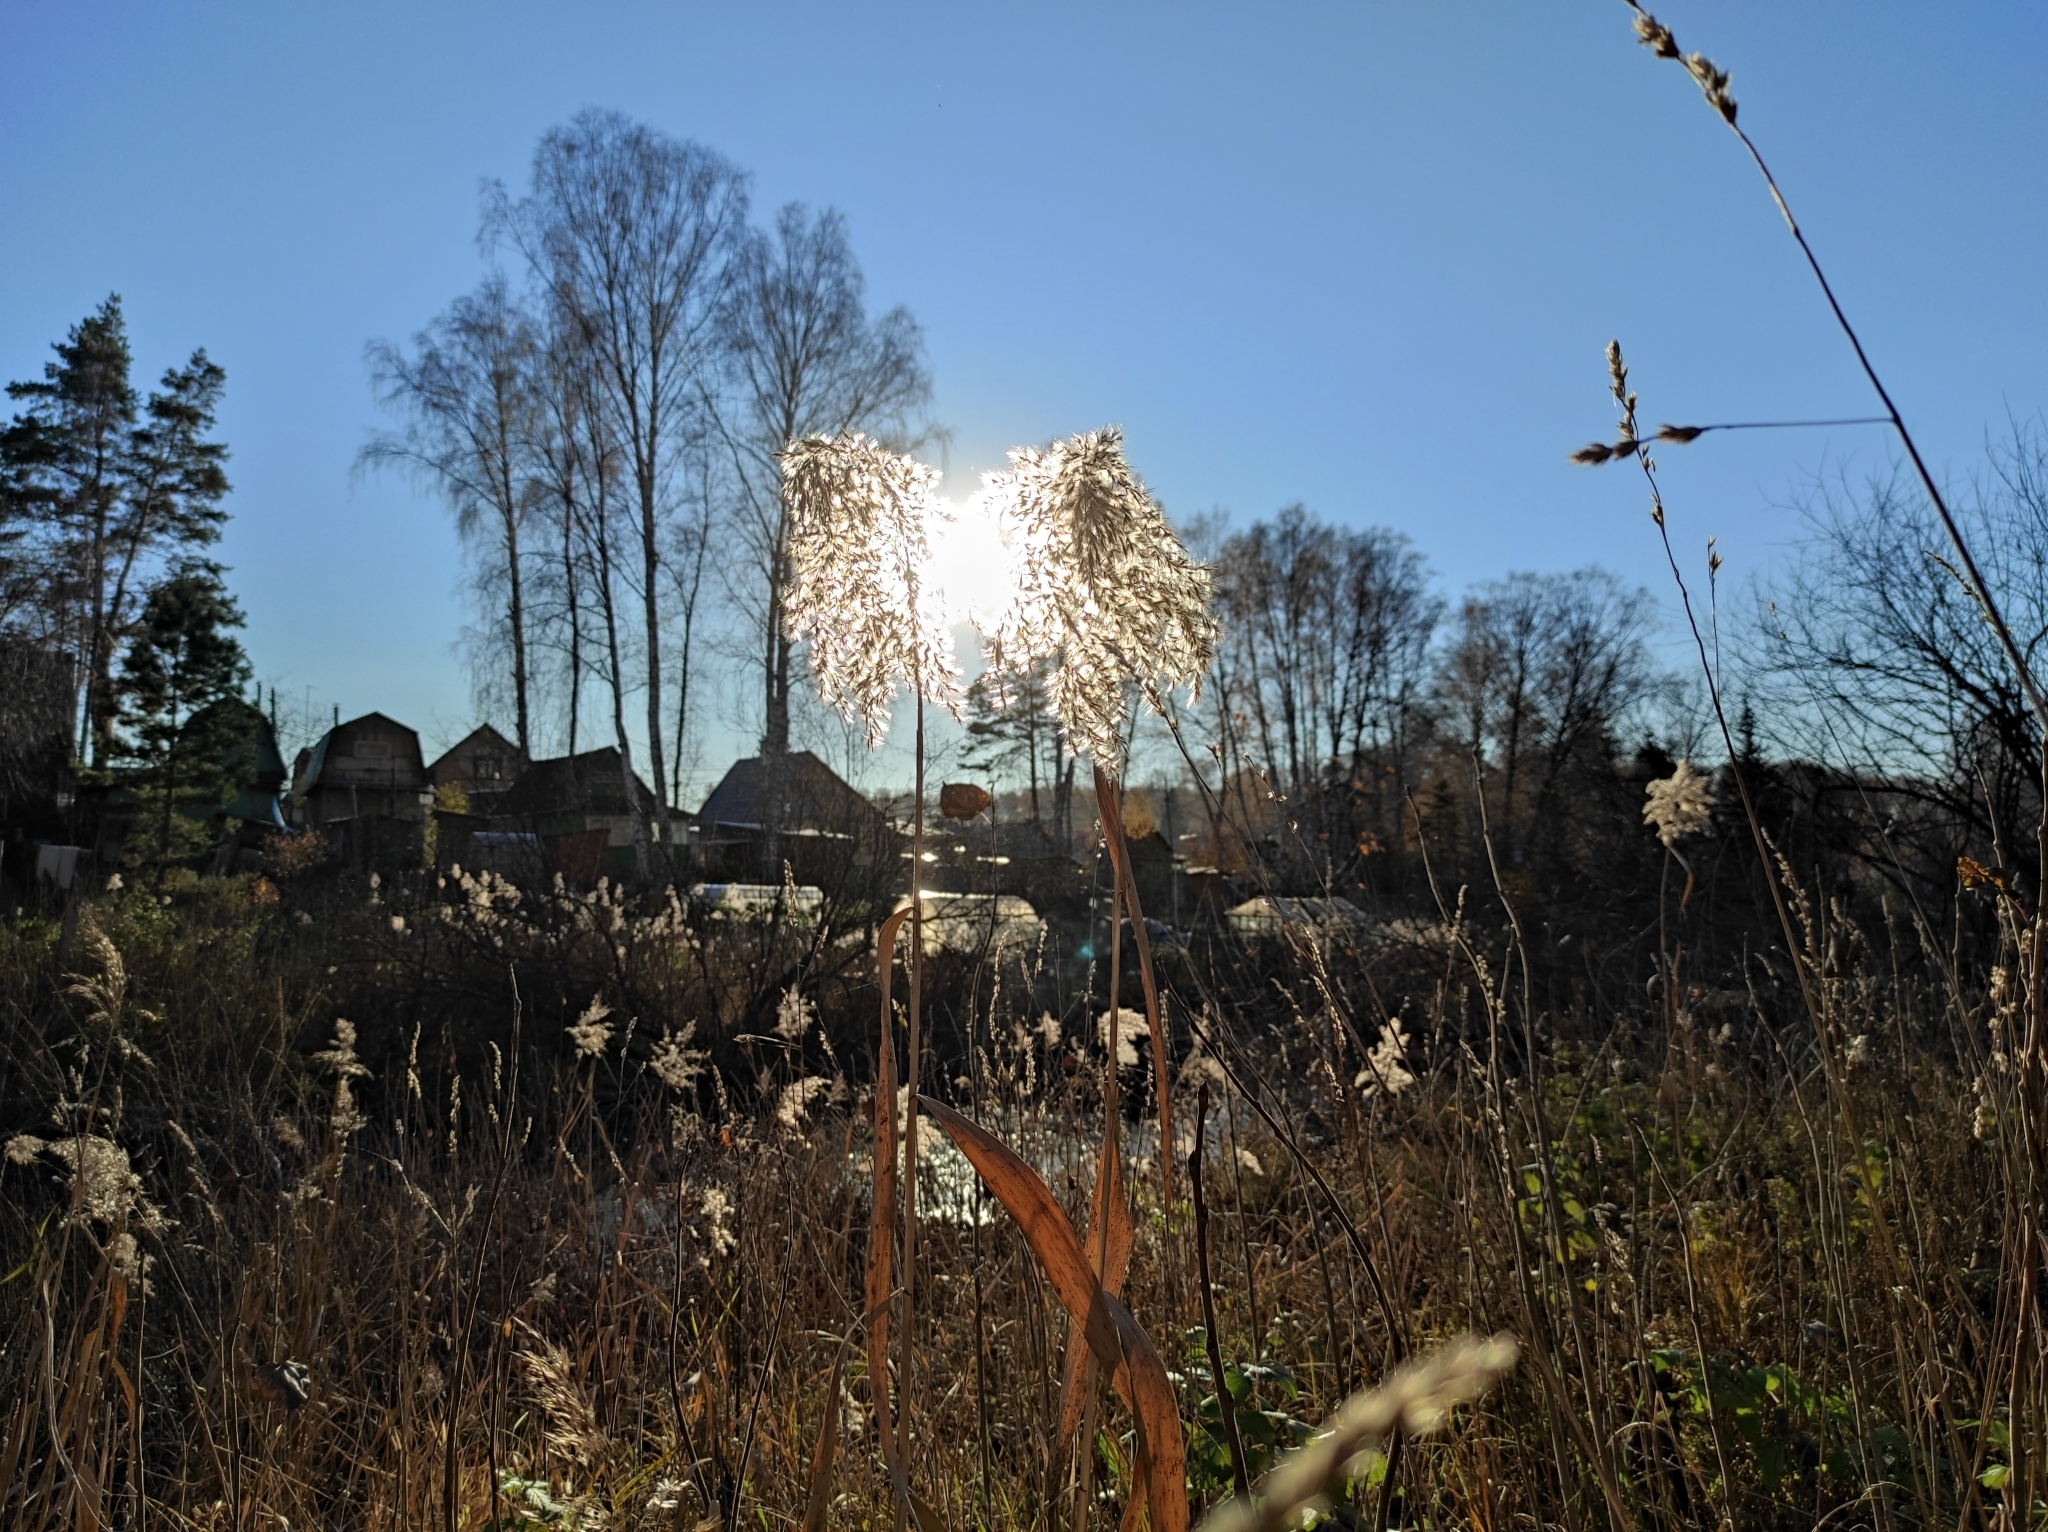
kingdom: Plantae
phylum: Tracheophyta
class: Liliopsida
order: Poales
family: Poaceae
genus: Phragmites
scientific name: Phragmites australis
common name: Common reed
